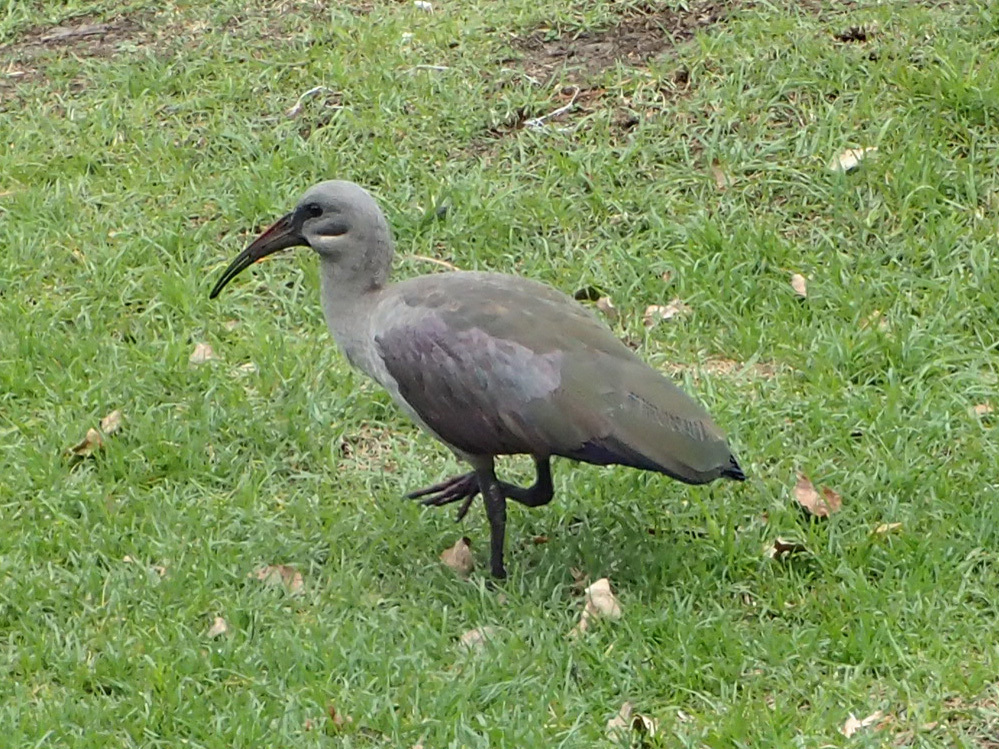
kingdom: Animalia
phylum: Chordata
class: Aves
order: Pelecaniformes
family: Threskiornithidae
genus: Bostrychia
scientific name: Bostrychia hagedash
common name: Hadada ibis
